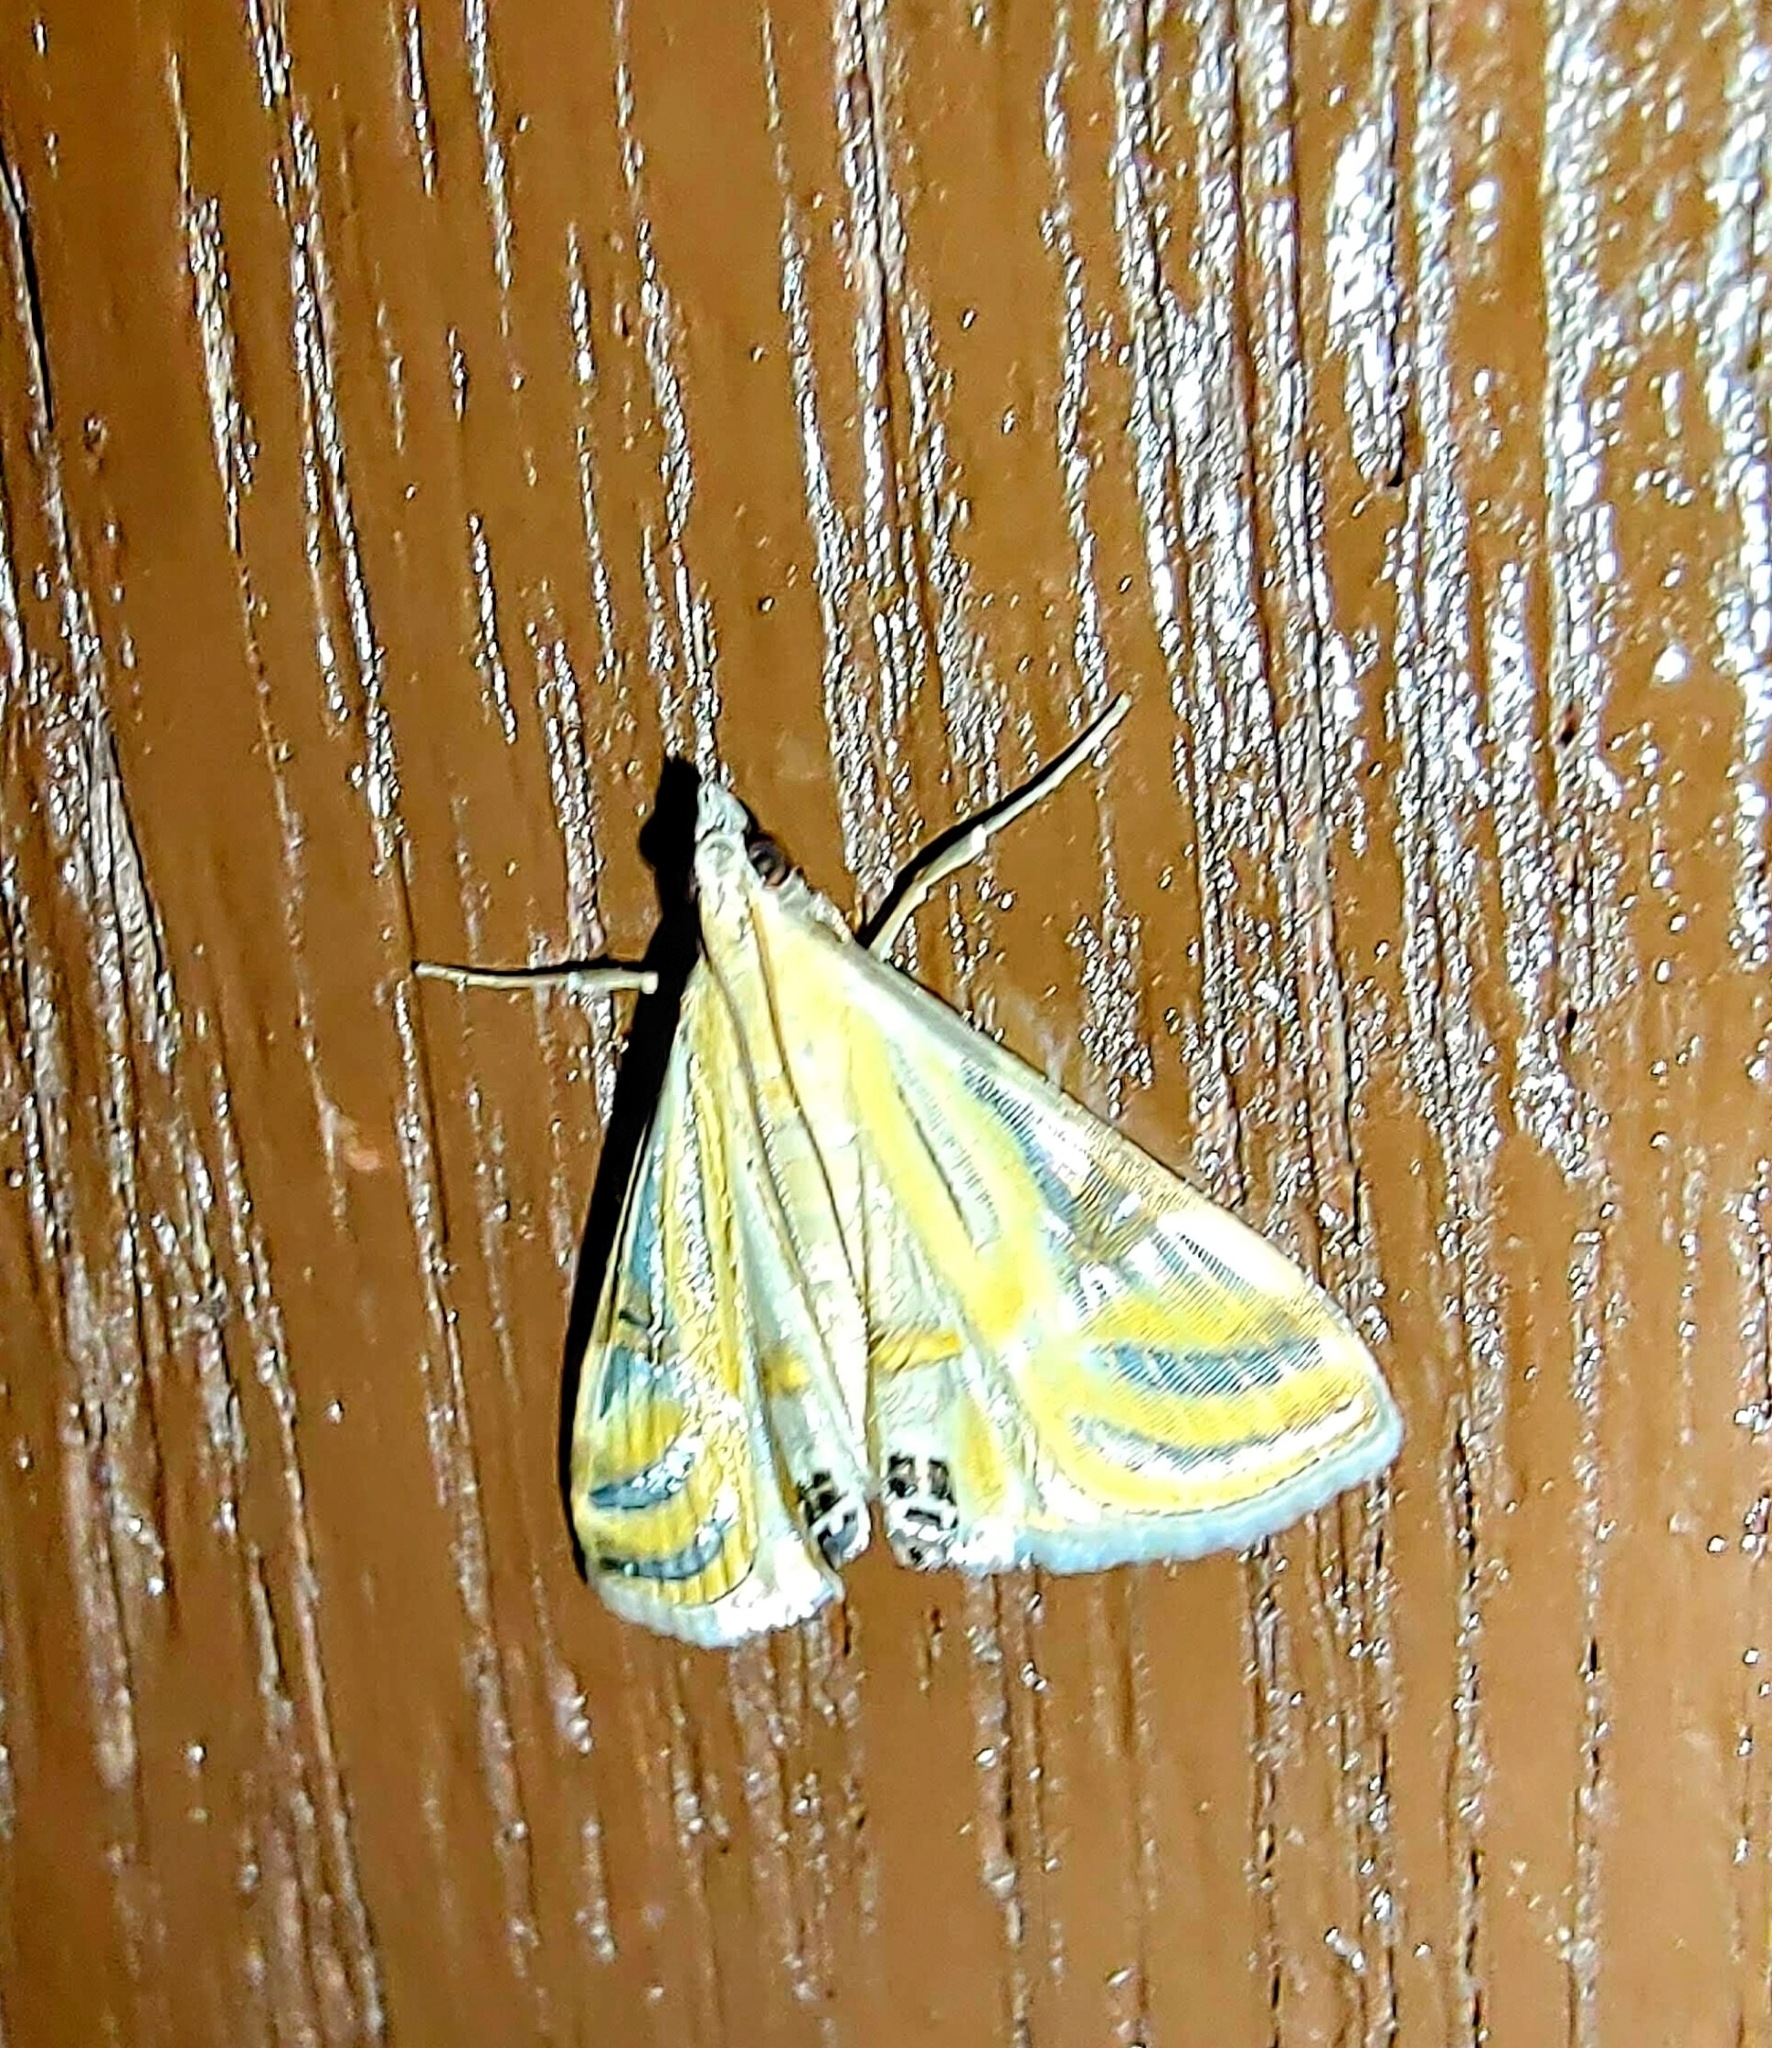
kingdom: Animalia
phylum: Arthropoda
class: Insecta
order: Lepidoptera
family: Crambidae
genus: Talanga
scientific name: Talanga sexpunctalis
